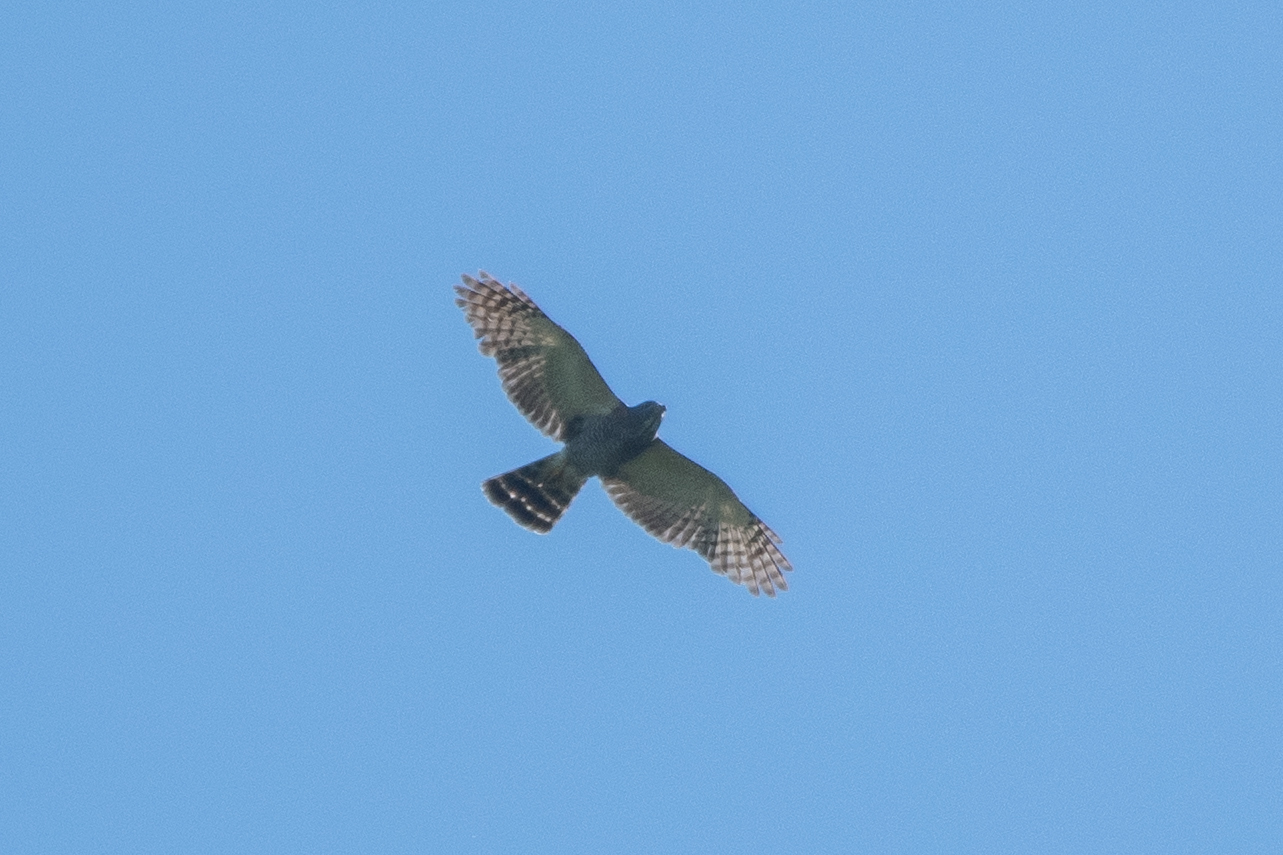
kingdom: Animalia
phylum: Chordata
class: Aves
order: Accipitriformes
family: Accipitridae
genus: Harpagus
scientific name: Harpagus bidentatus
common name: Double-toothed kite
